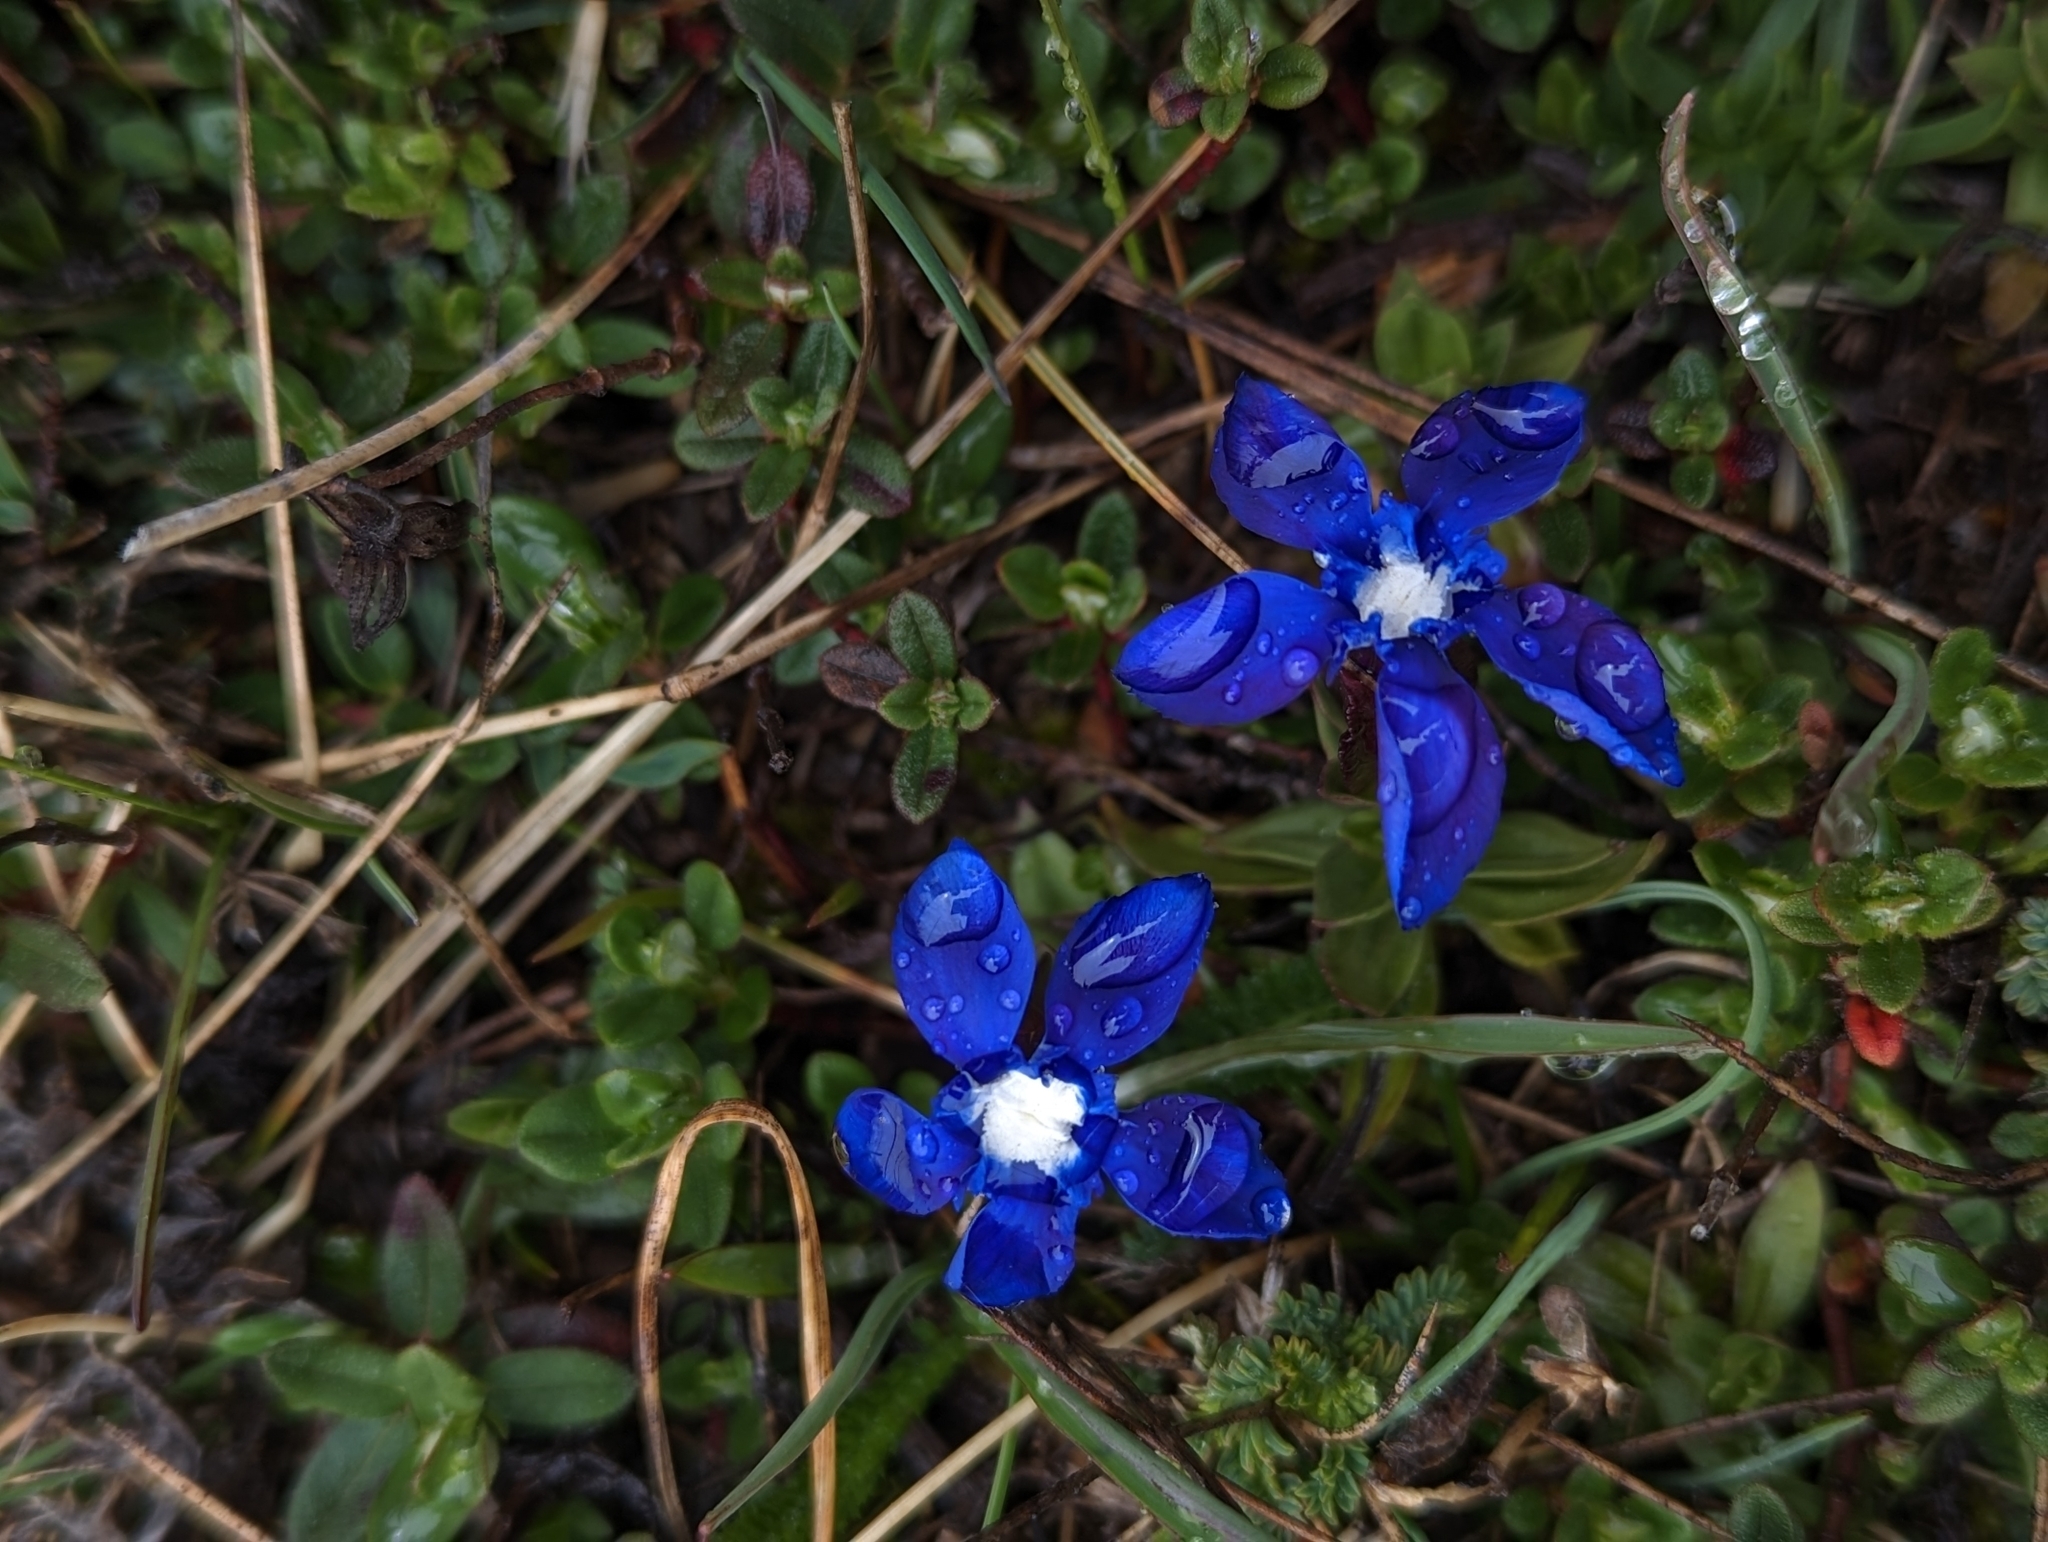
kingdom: Plantae
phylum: Tracheophyta
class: Magnoliopsida
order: Gentianales
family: Gentianaceae
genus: Gentiana
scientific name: Gentiana verna
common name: Spring gentian
